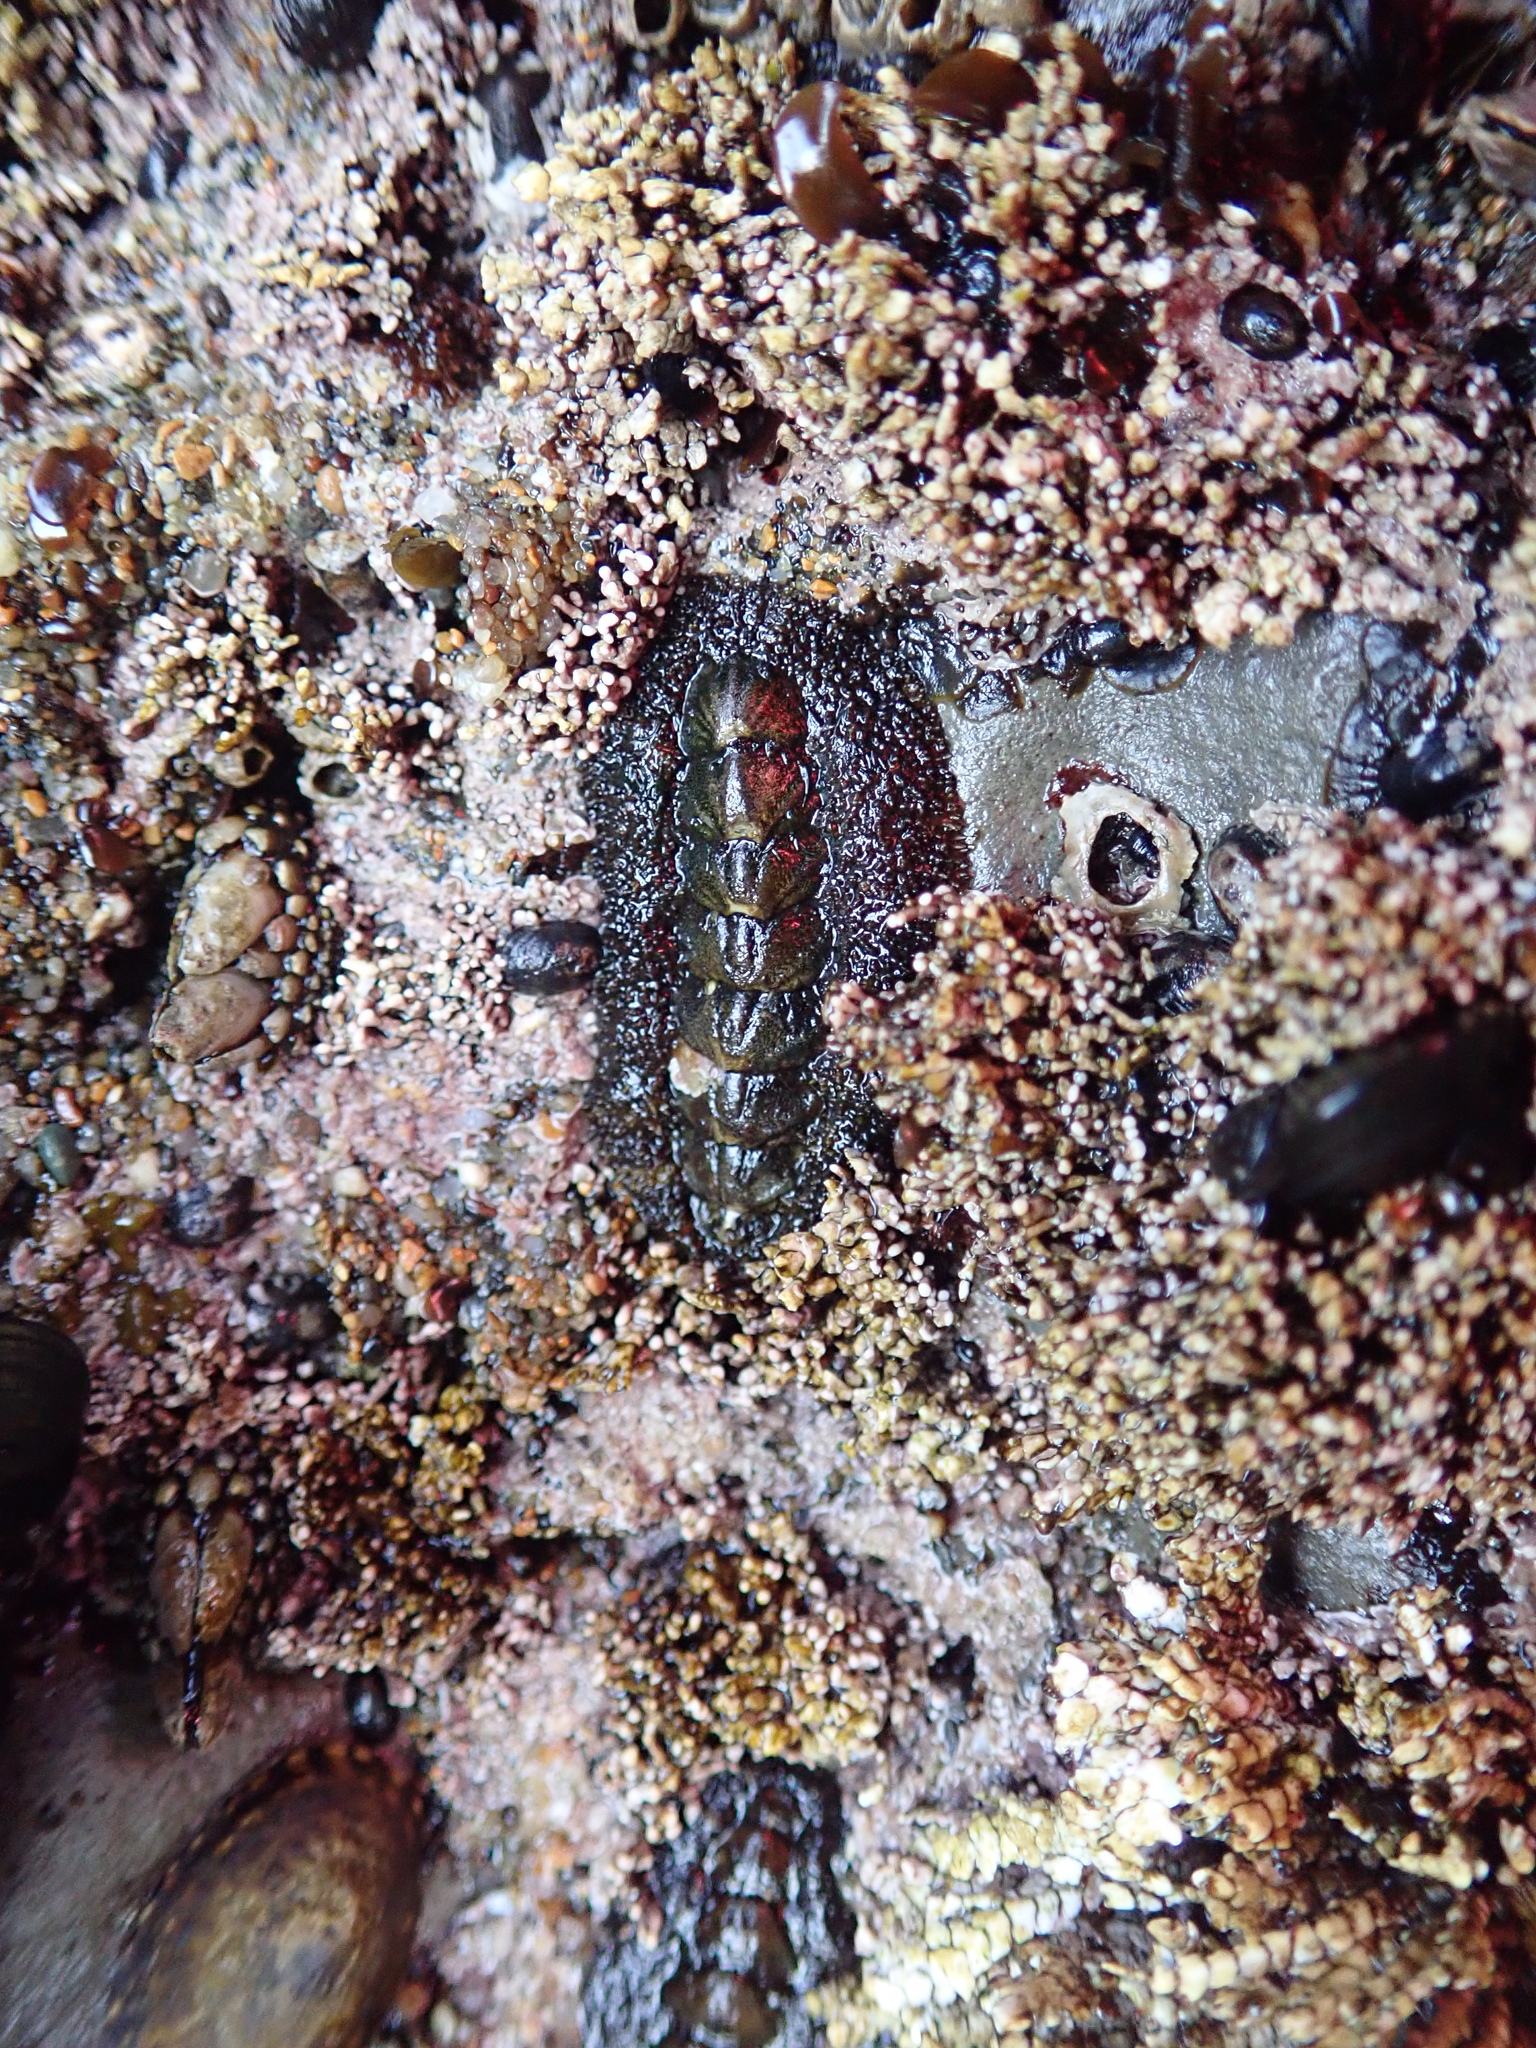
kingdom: Animalia
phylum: Mollusca
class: Polyplacophora
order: Chitonida
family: Tonicellidae
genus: Nuttallina
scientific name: Nuttallina californica
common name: California nuttall chiton
